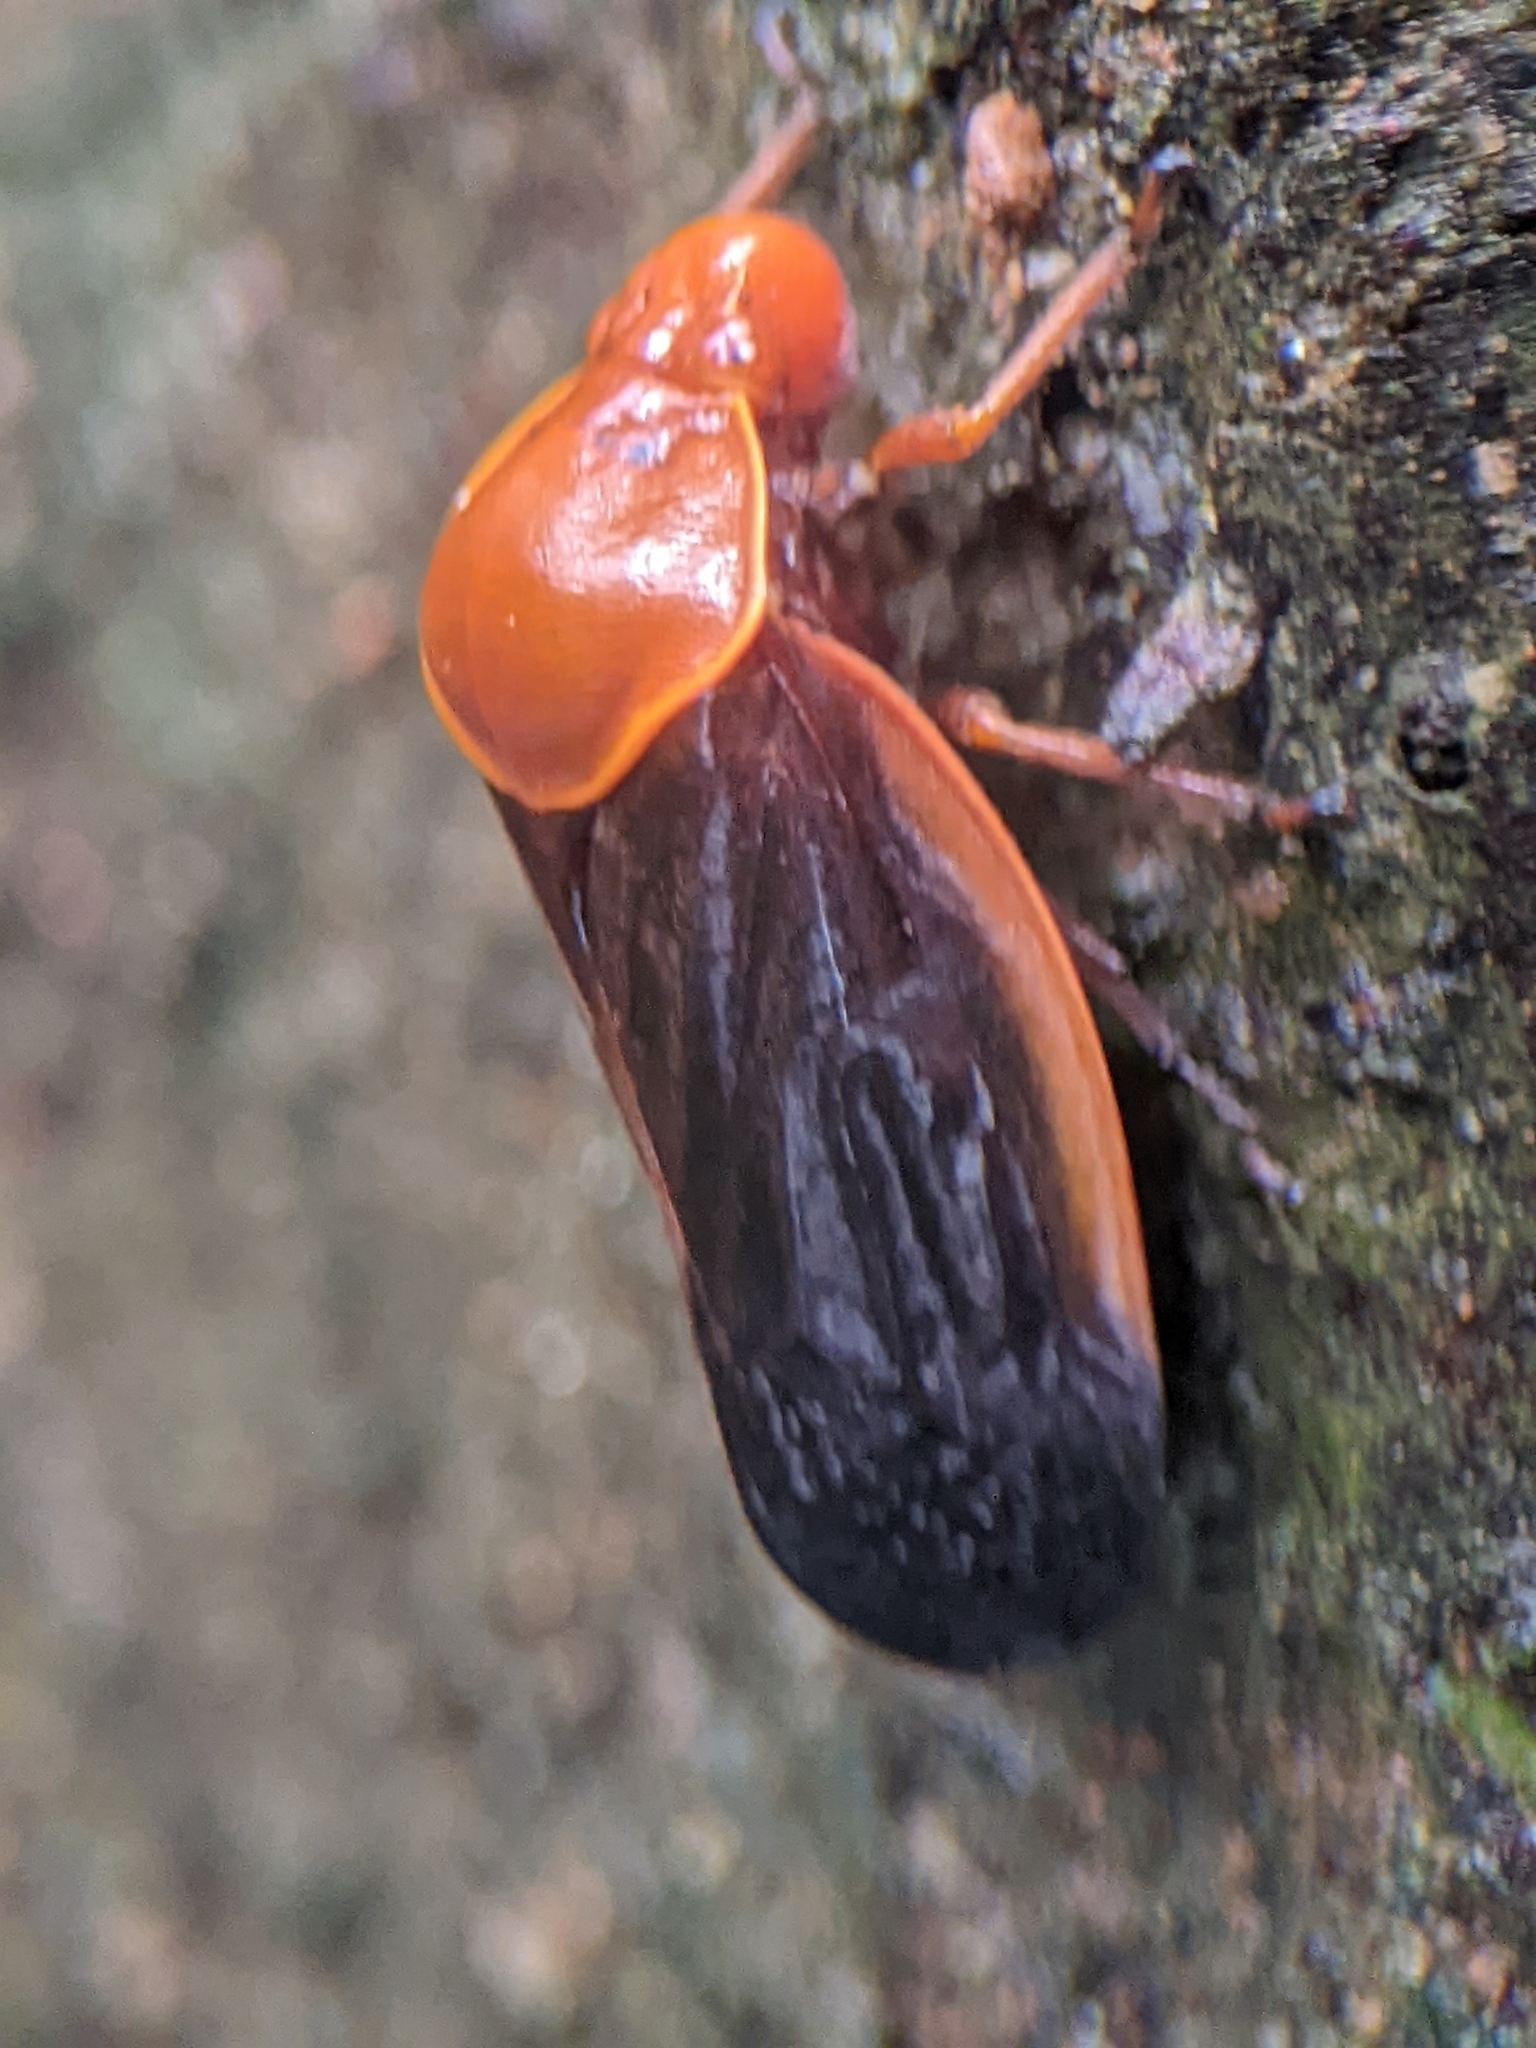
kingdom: Animalia
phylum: Arthropoda
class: Insecta
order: Hemiptera
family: Cercopidae
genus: Leptataspis
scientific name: Leptataspis fuscipennis
